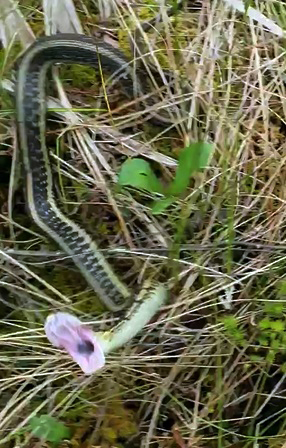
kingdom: Animalia
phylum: Chordata
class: Squamata
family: Colubridae
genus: Thamnophis
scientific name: Thamnophis sirtalis
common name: Common garter snake
